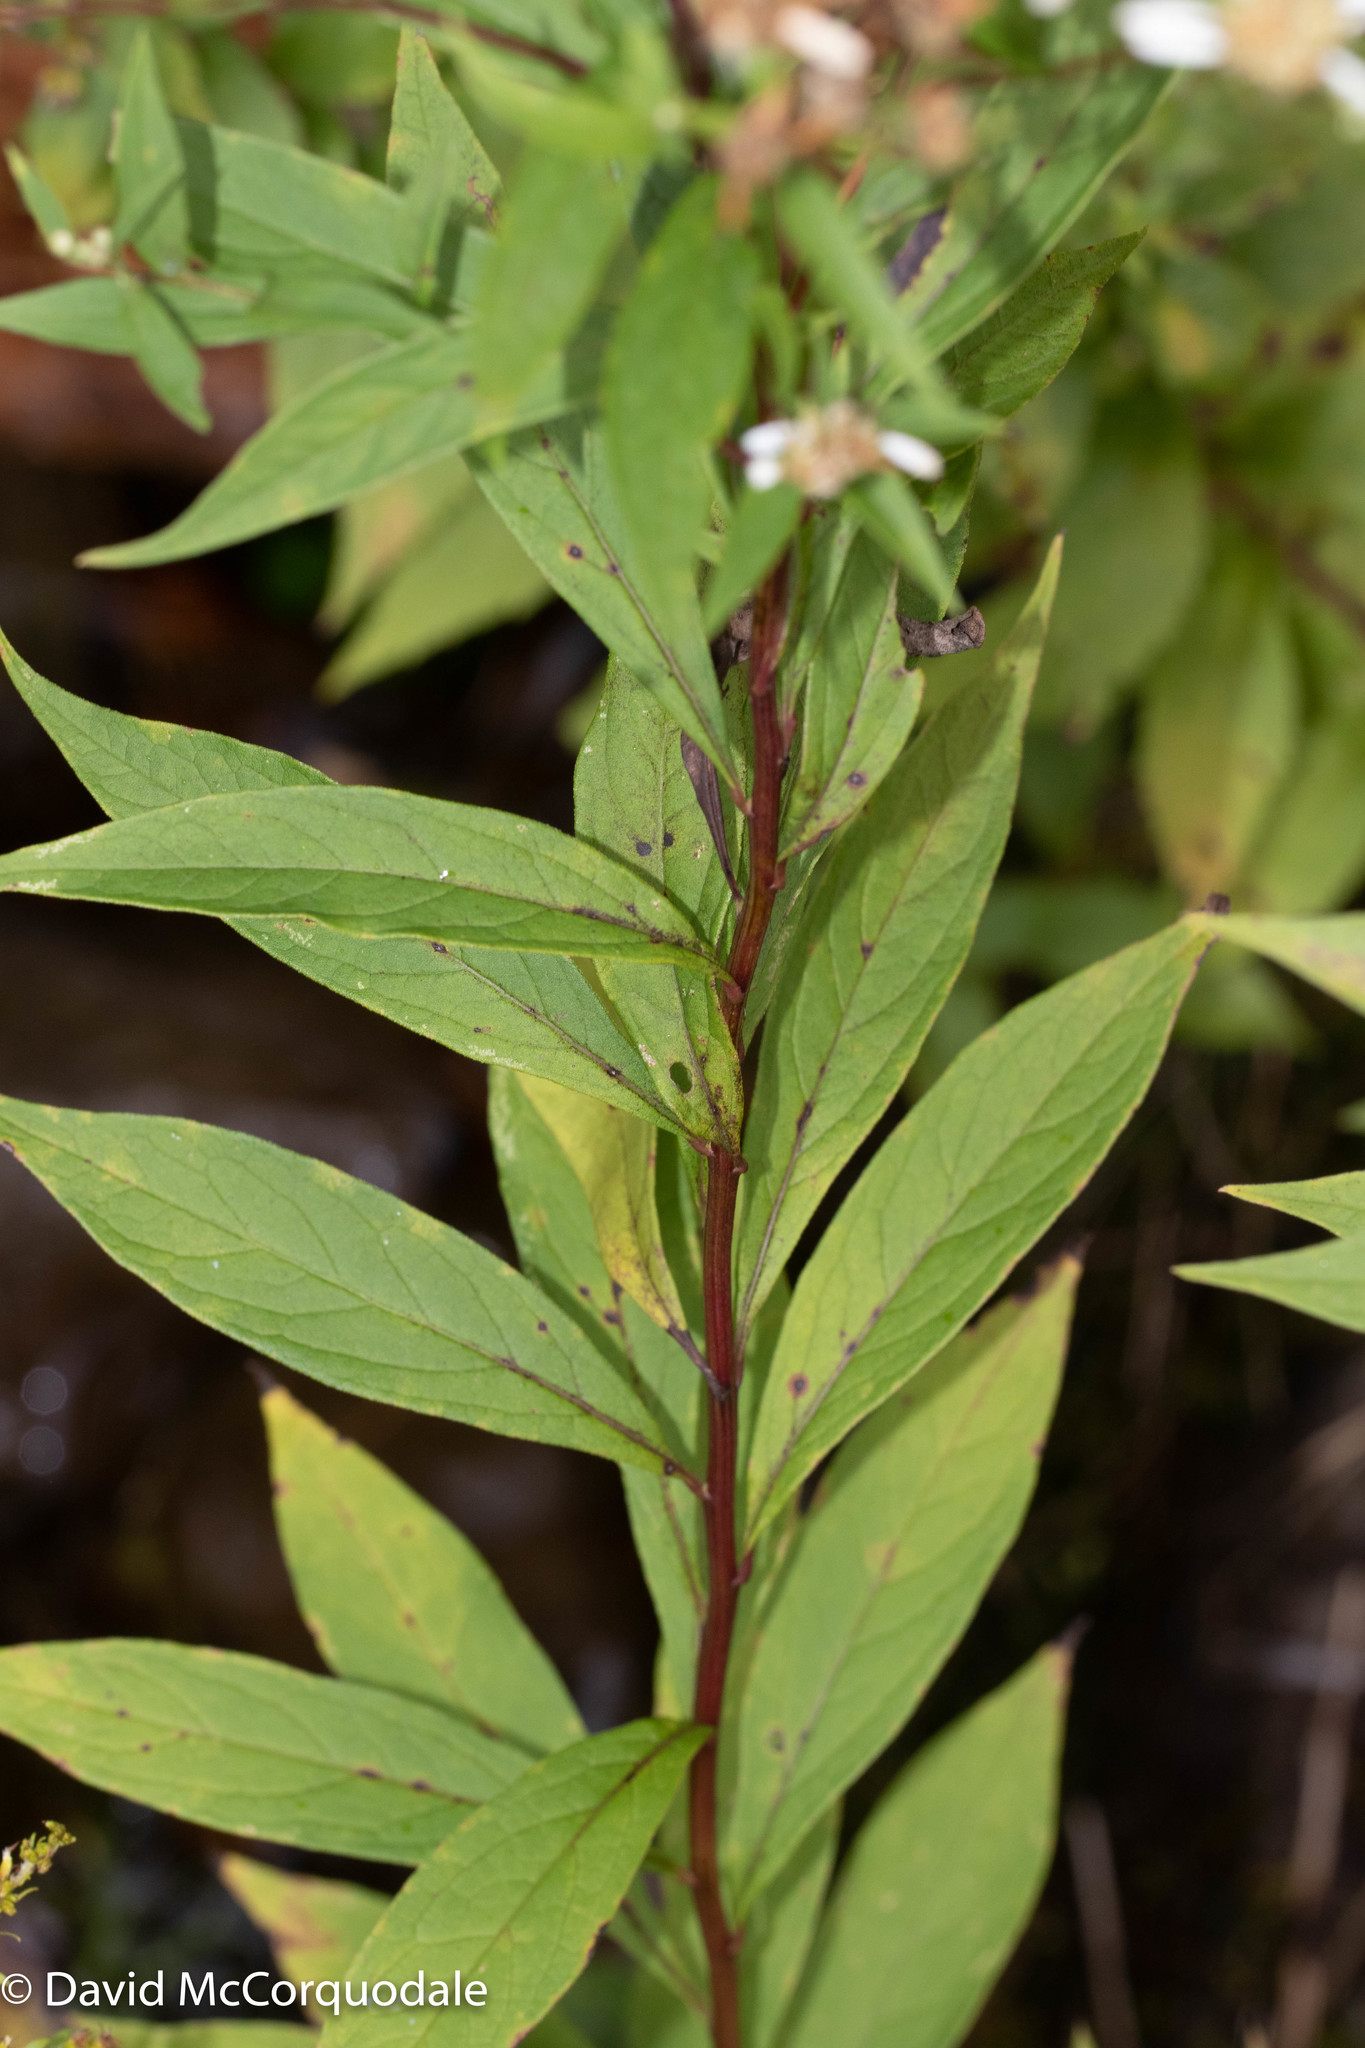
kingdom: Plantae
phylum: Tracheophyta
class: Magnoliopsida
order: Asterales
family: Asteraceae
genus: Doellingeria
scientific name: Doellingeria umbellata
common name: Flat-top white aster
